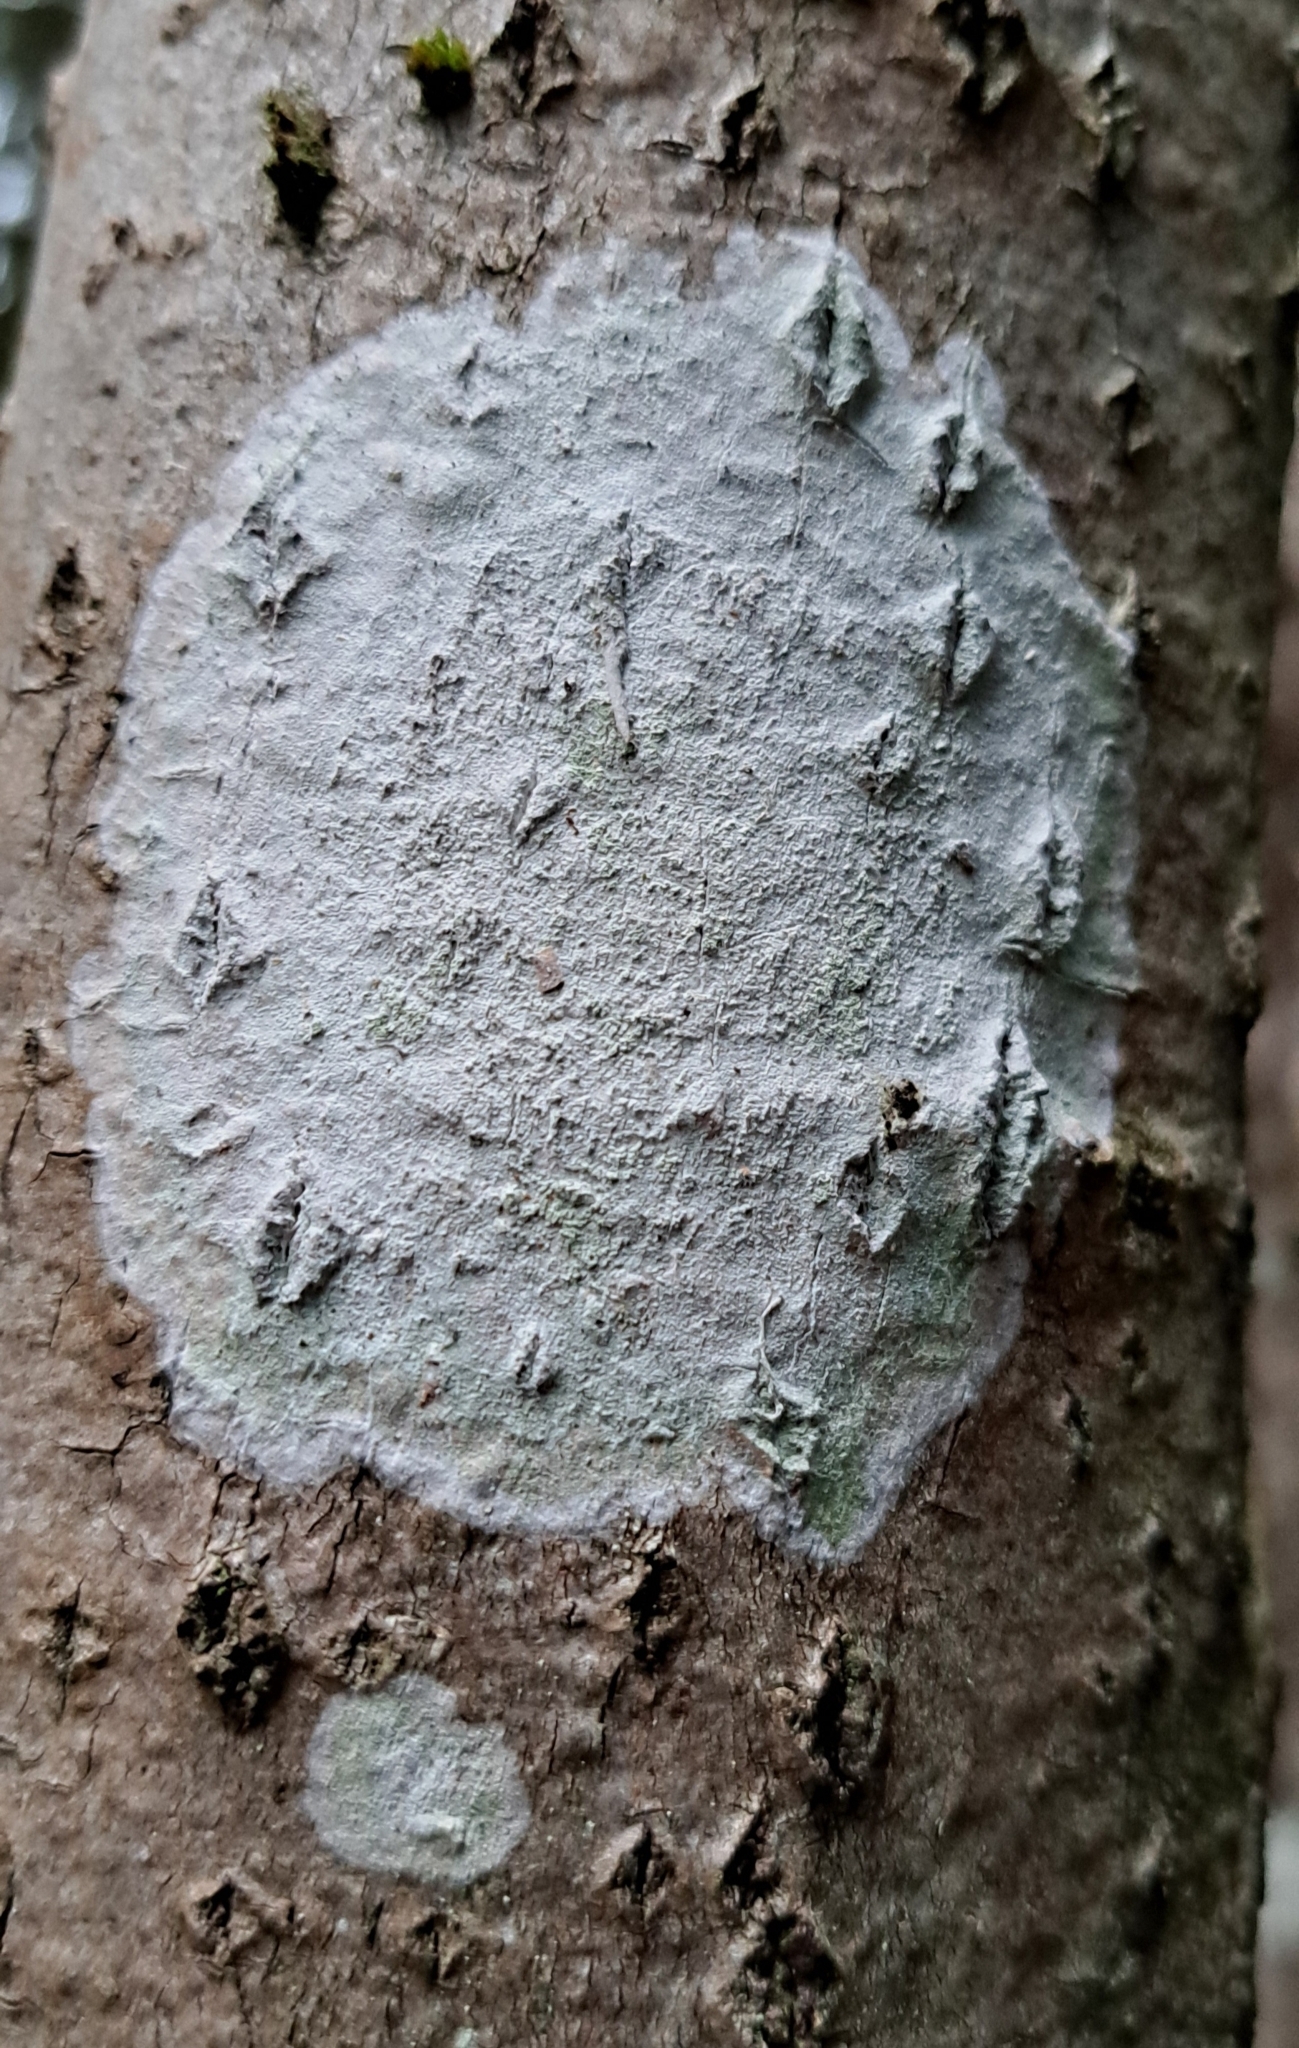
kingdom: Fungi
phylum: Ascomycota
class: Lecanoromycetes
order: Ostropales
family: Phlyctidaceae
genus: Phlyctis
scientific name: Phlyctis argena
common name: Whitewash lichen
